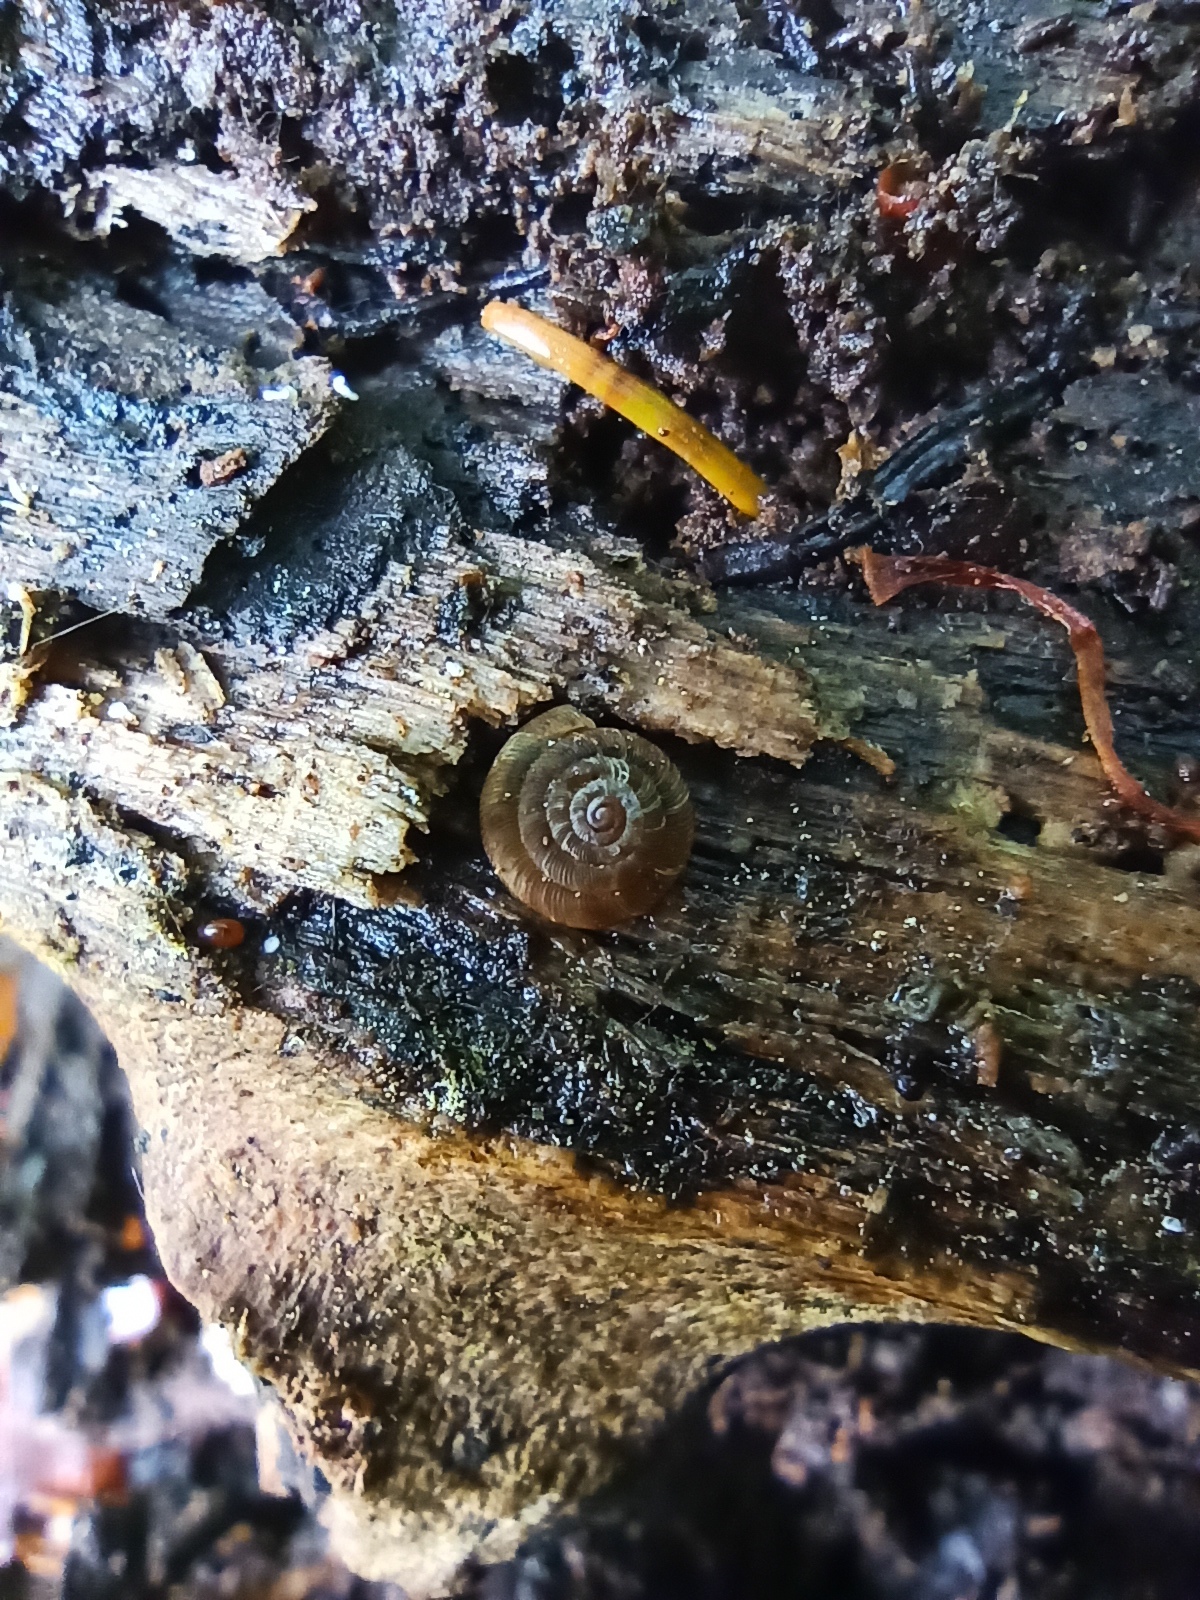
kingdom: Animalia
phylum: Mollusca
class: Gastropoda
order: Stylommatophora
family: Discidae
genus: Discus
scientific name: Discus
